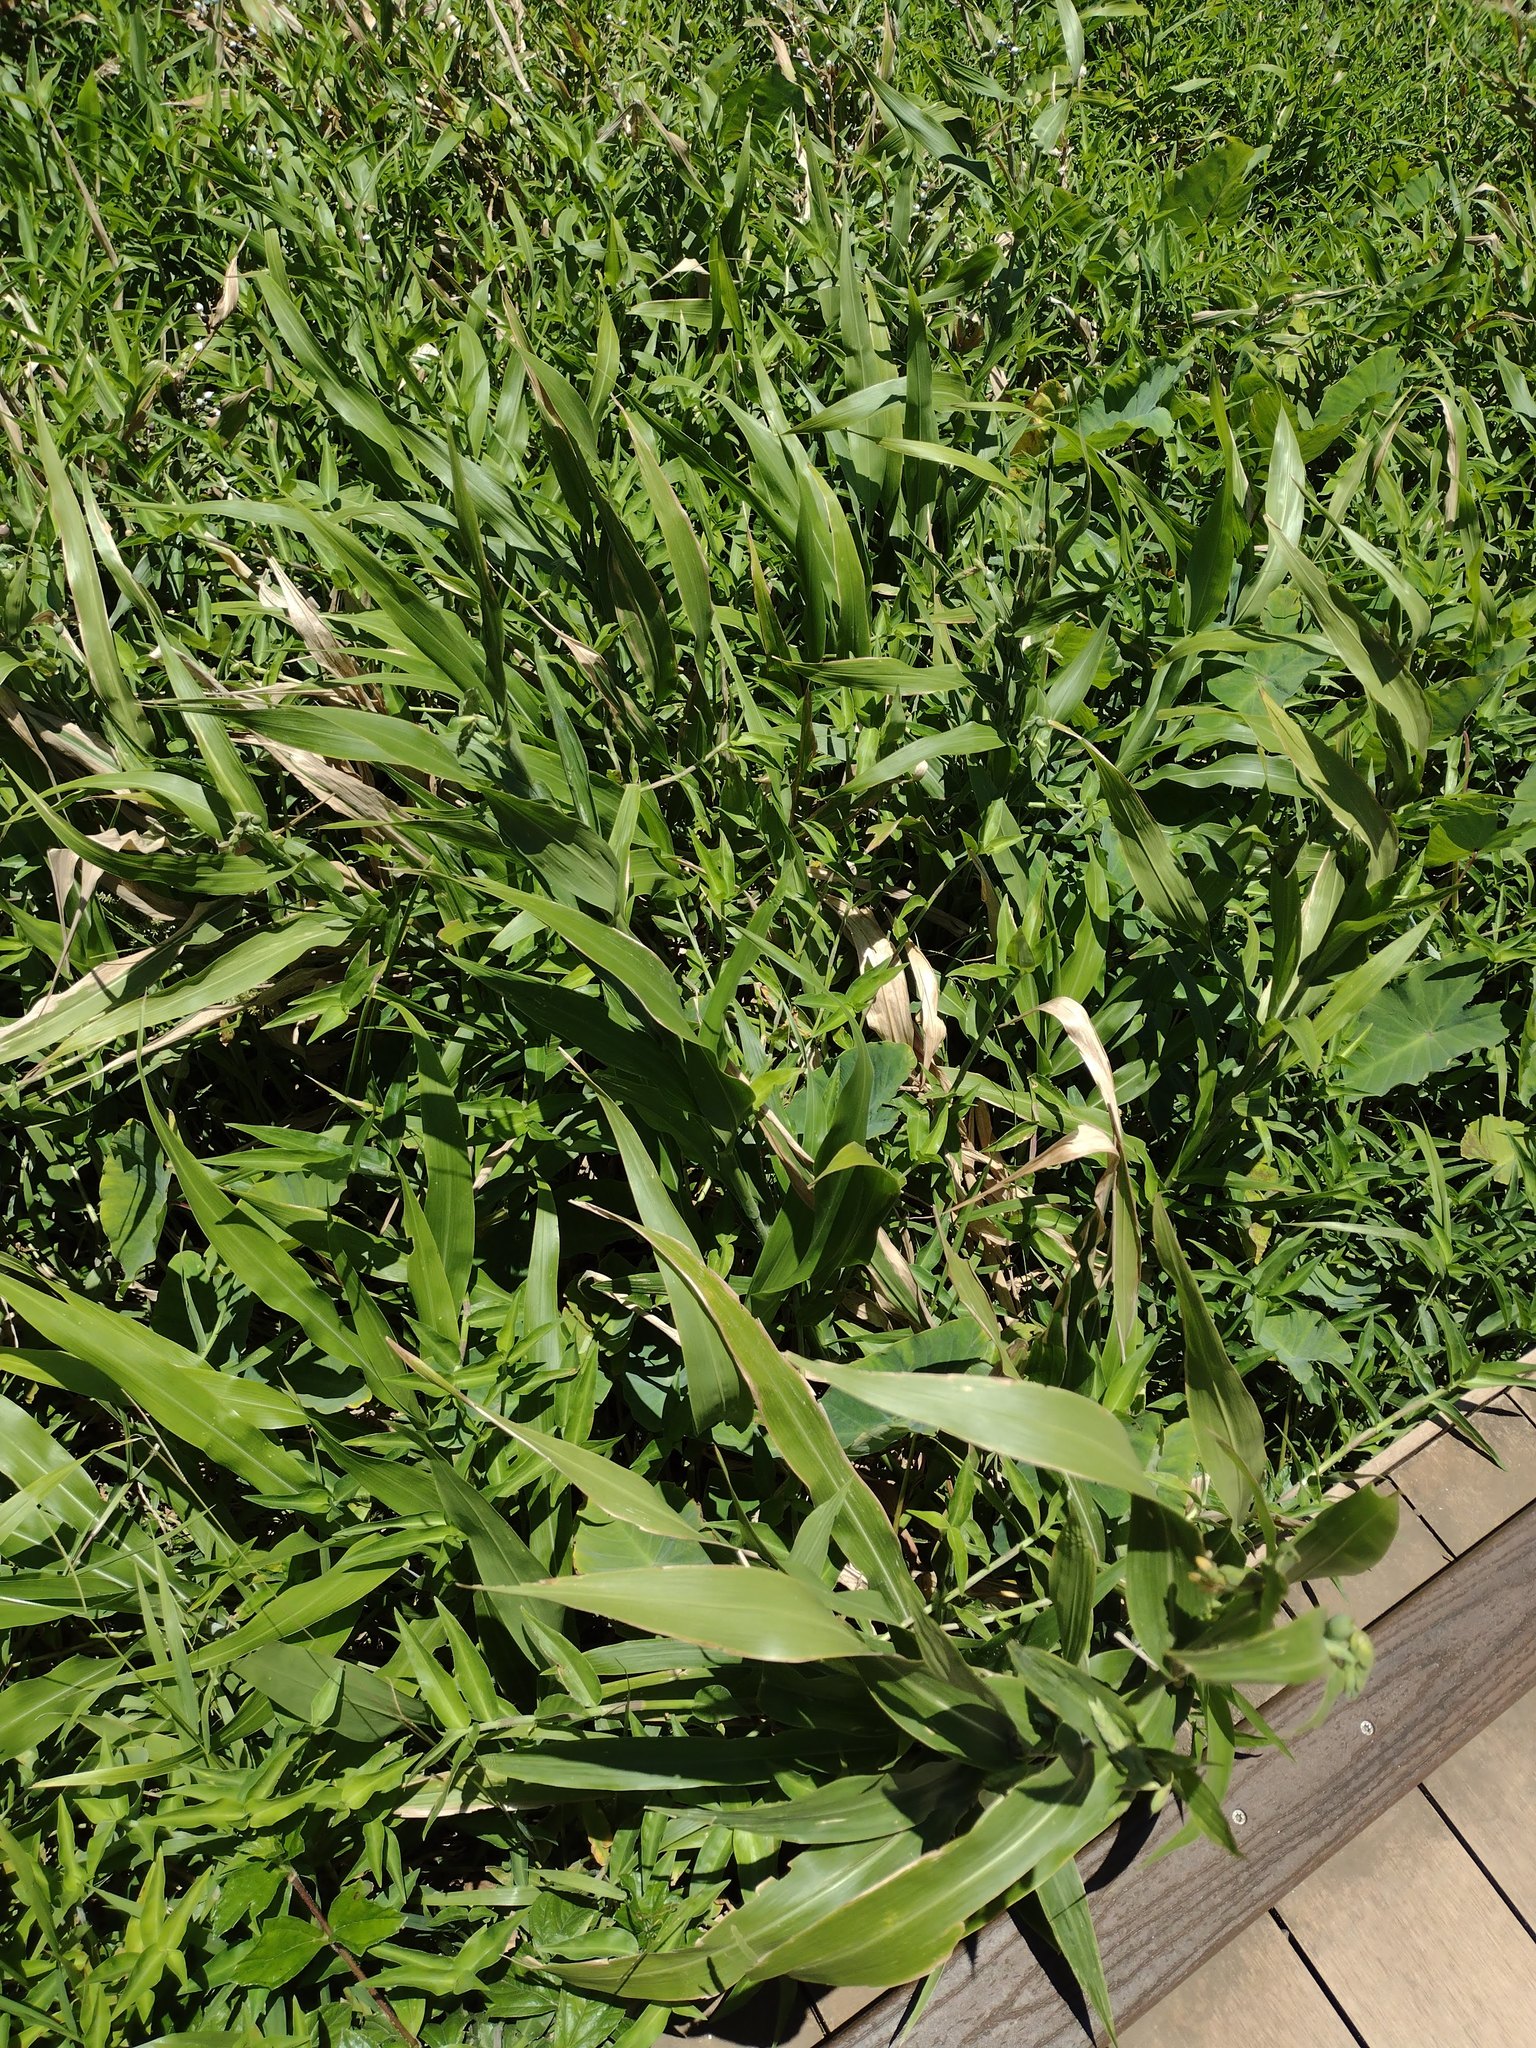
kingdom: Plantae
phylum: Tracheophyta
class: Liliopsida
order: Poales
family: Poaceae
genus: Coix
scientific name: Coix lacryma-jobi
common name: Job's tears
